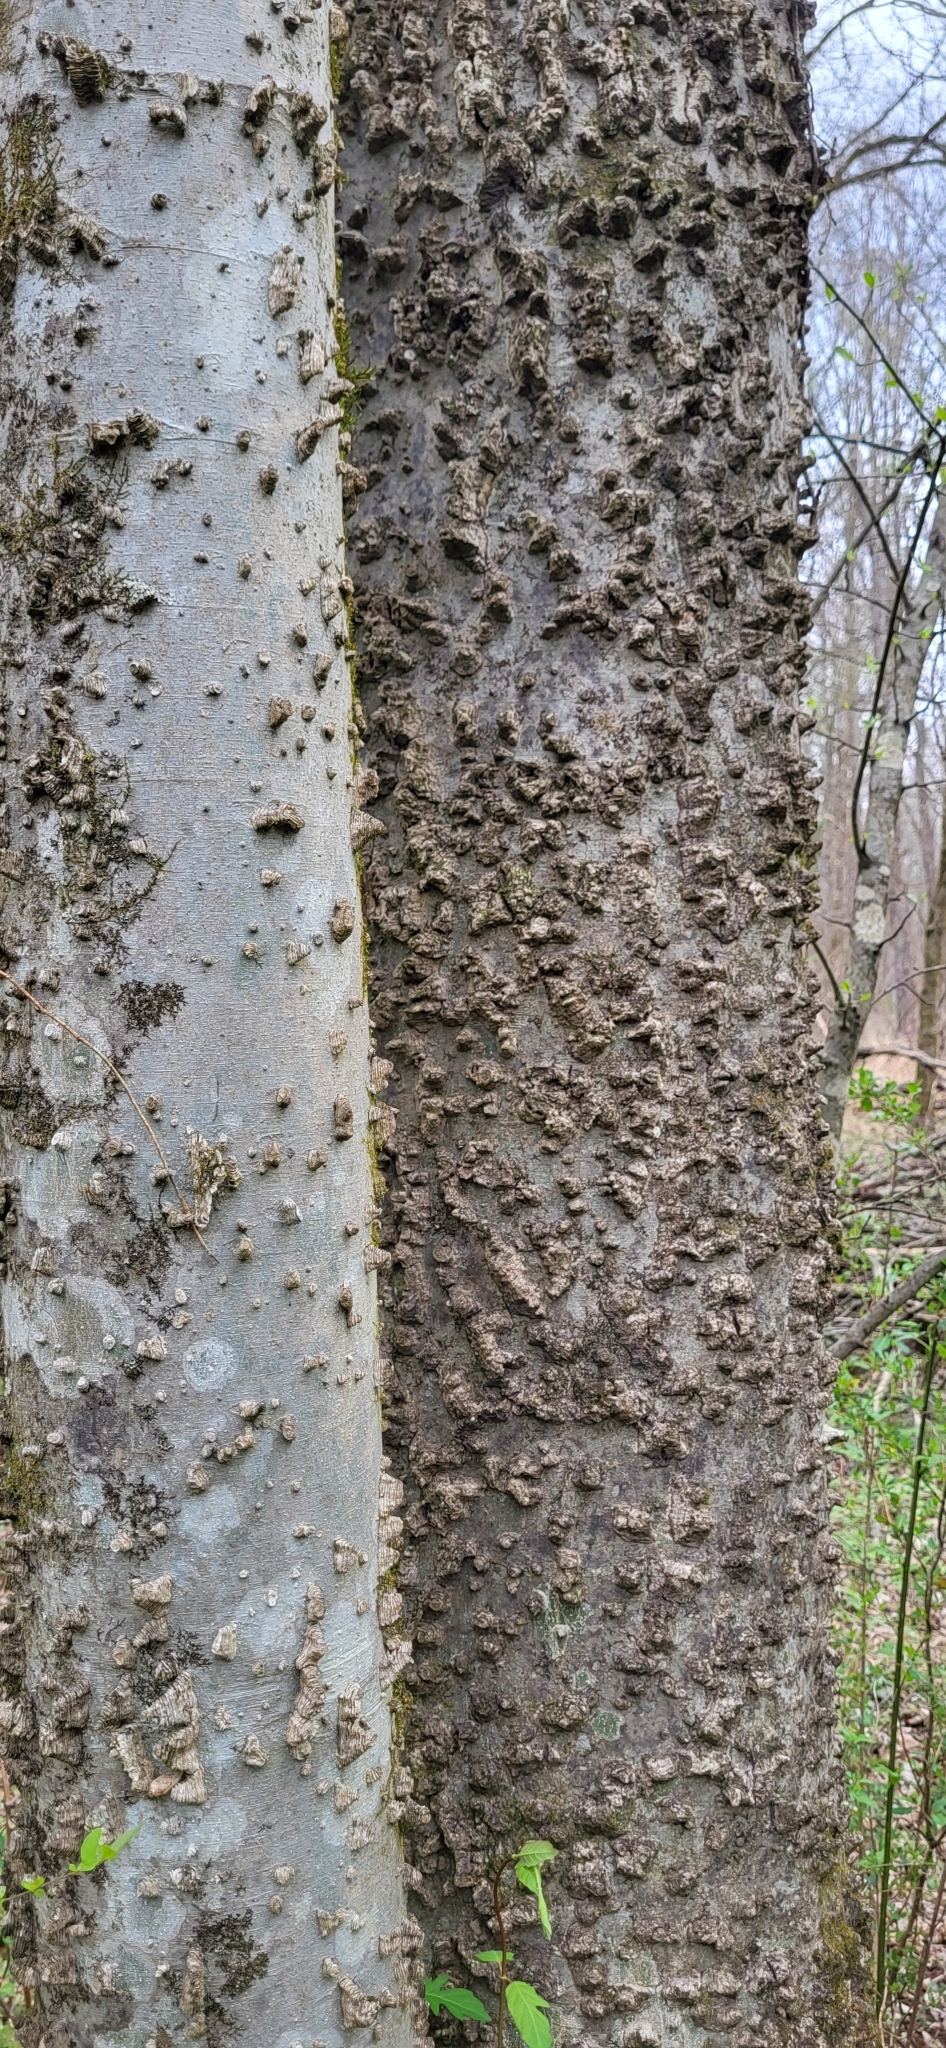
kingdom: Plantae
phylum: Tracheophyta
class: Magnoliopsida
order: Rosales
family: Cannabaceae
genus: Celtis
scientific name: Celtis laevigata
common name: Sugarberry
